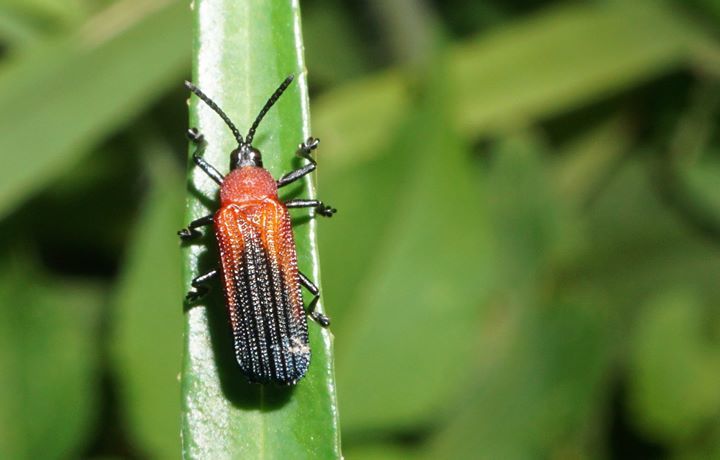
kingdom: Animalia
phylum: Arthropoda
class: Insecta
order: Coleoptera
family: Chrysomelidae
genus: Chalepus
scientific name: Chalepus sanguinicollis
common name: Red-shouldered leaf beetle
